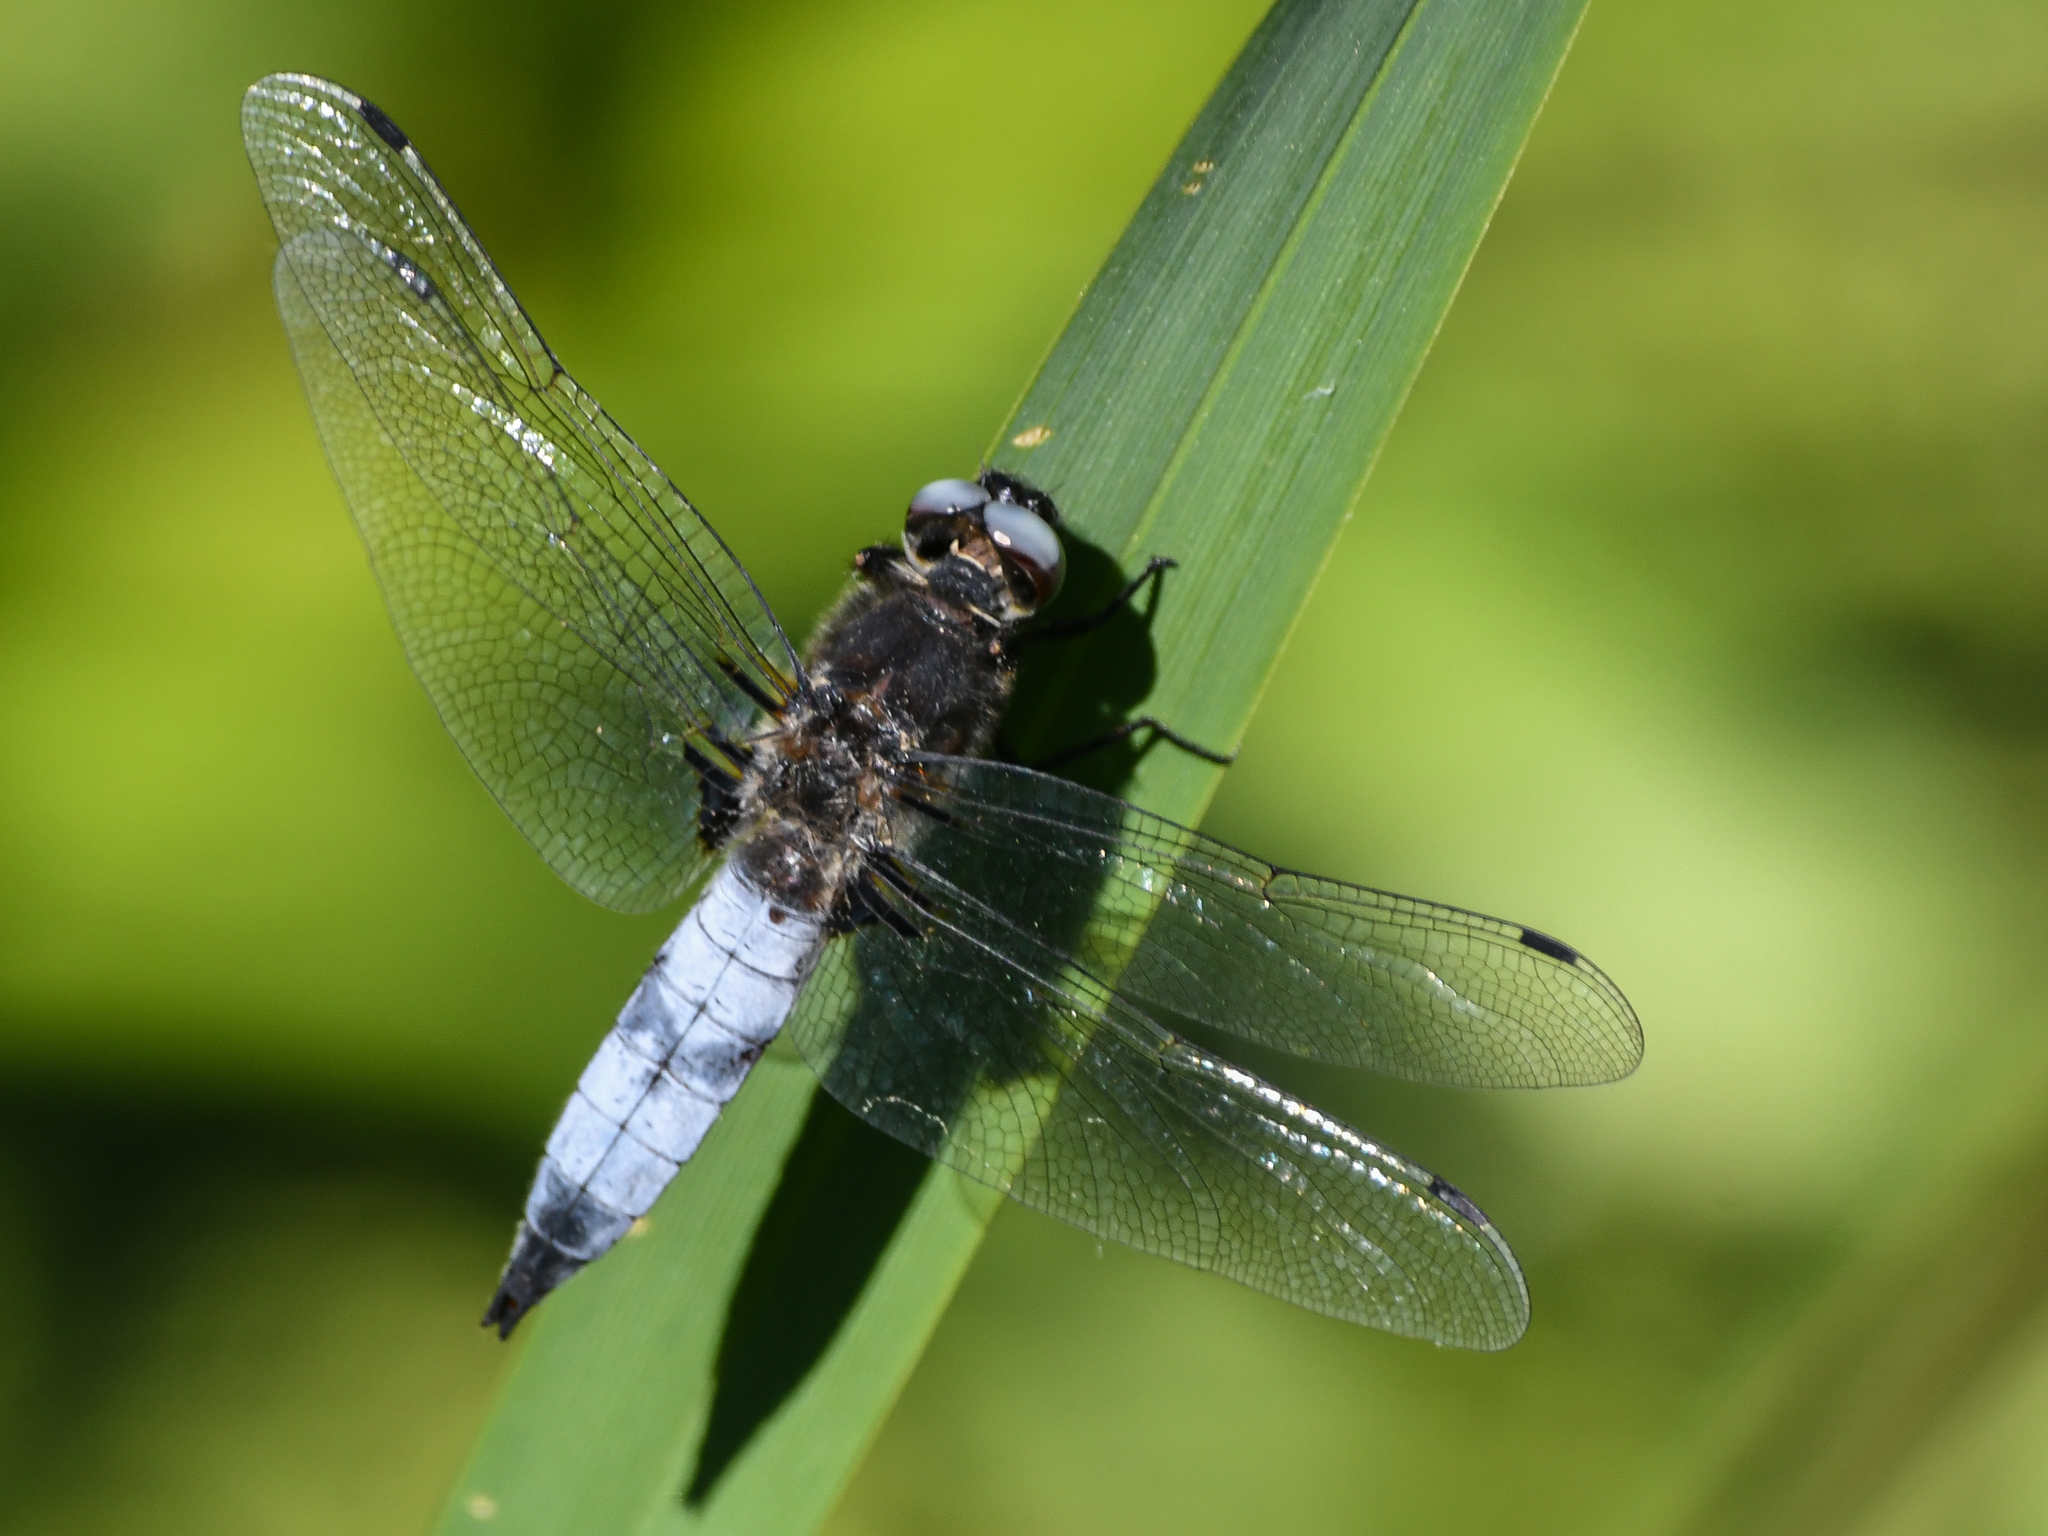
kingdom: Animalia
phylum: Arthropoda
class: Insecta
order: Odonata
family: Libellulidae
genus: Libellula
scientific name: Libellula fulva
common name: Blue chaser
